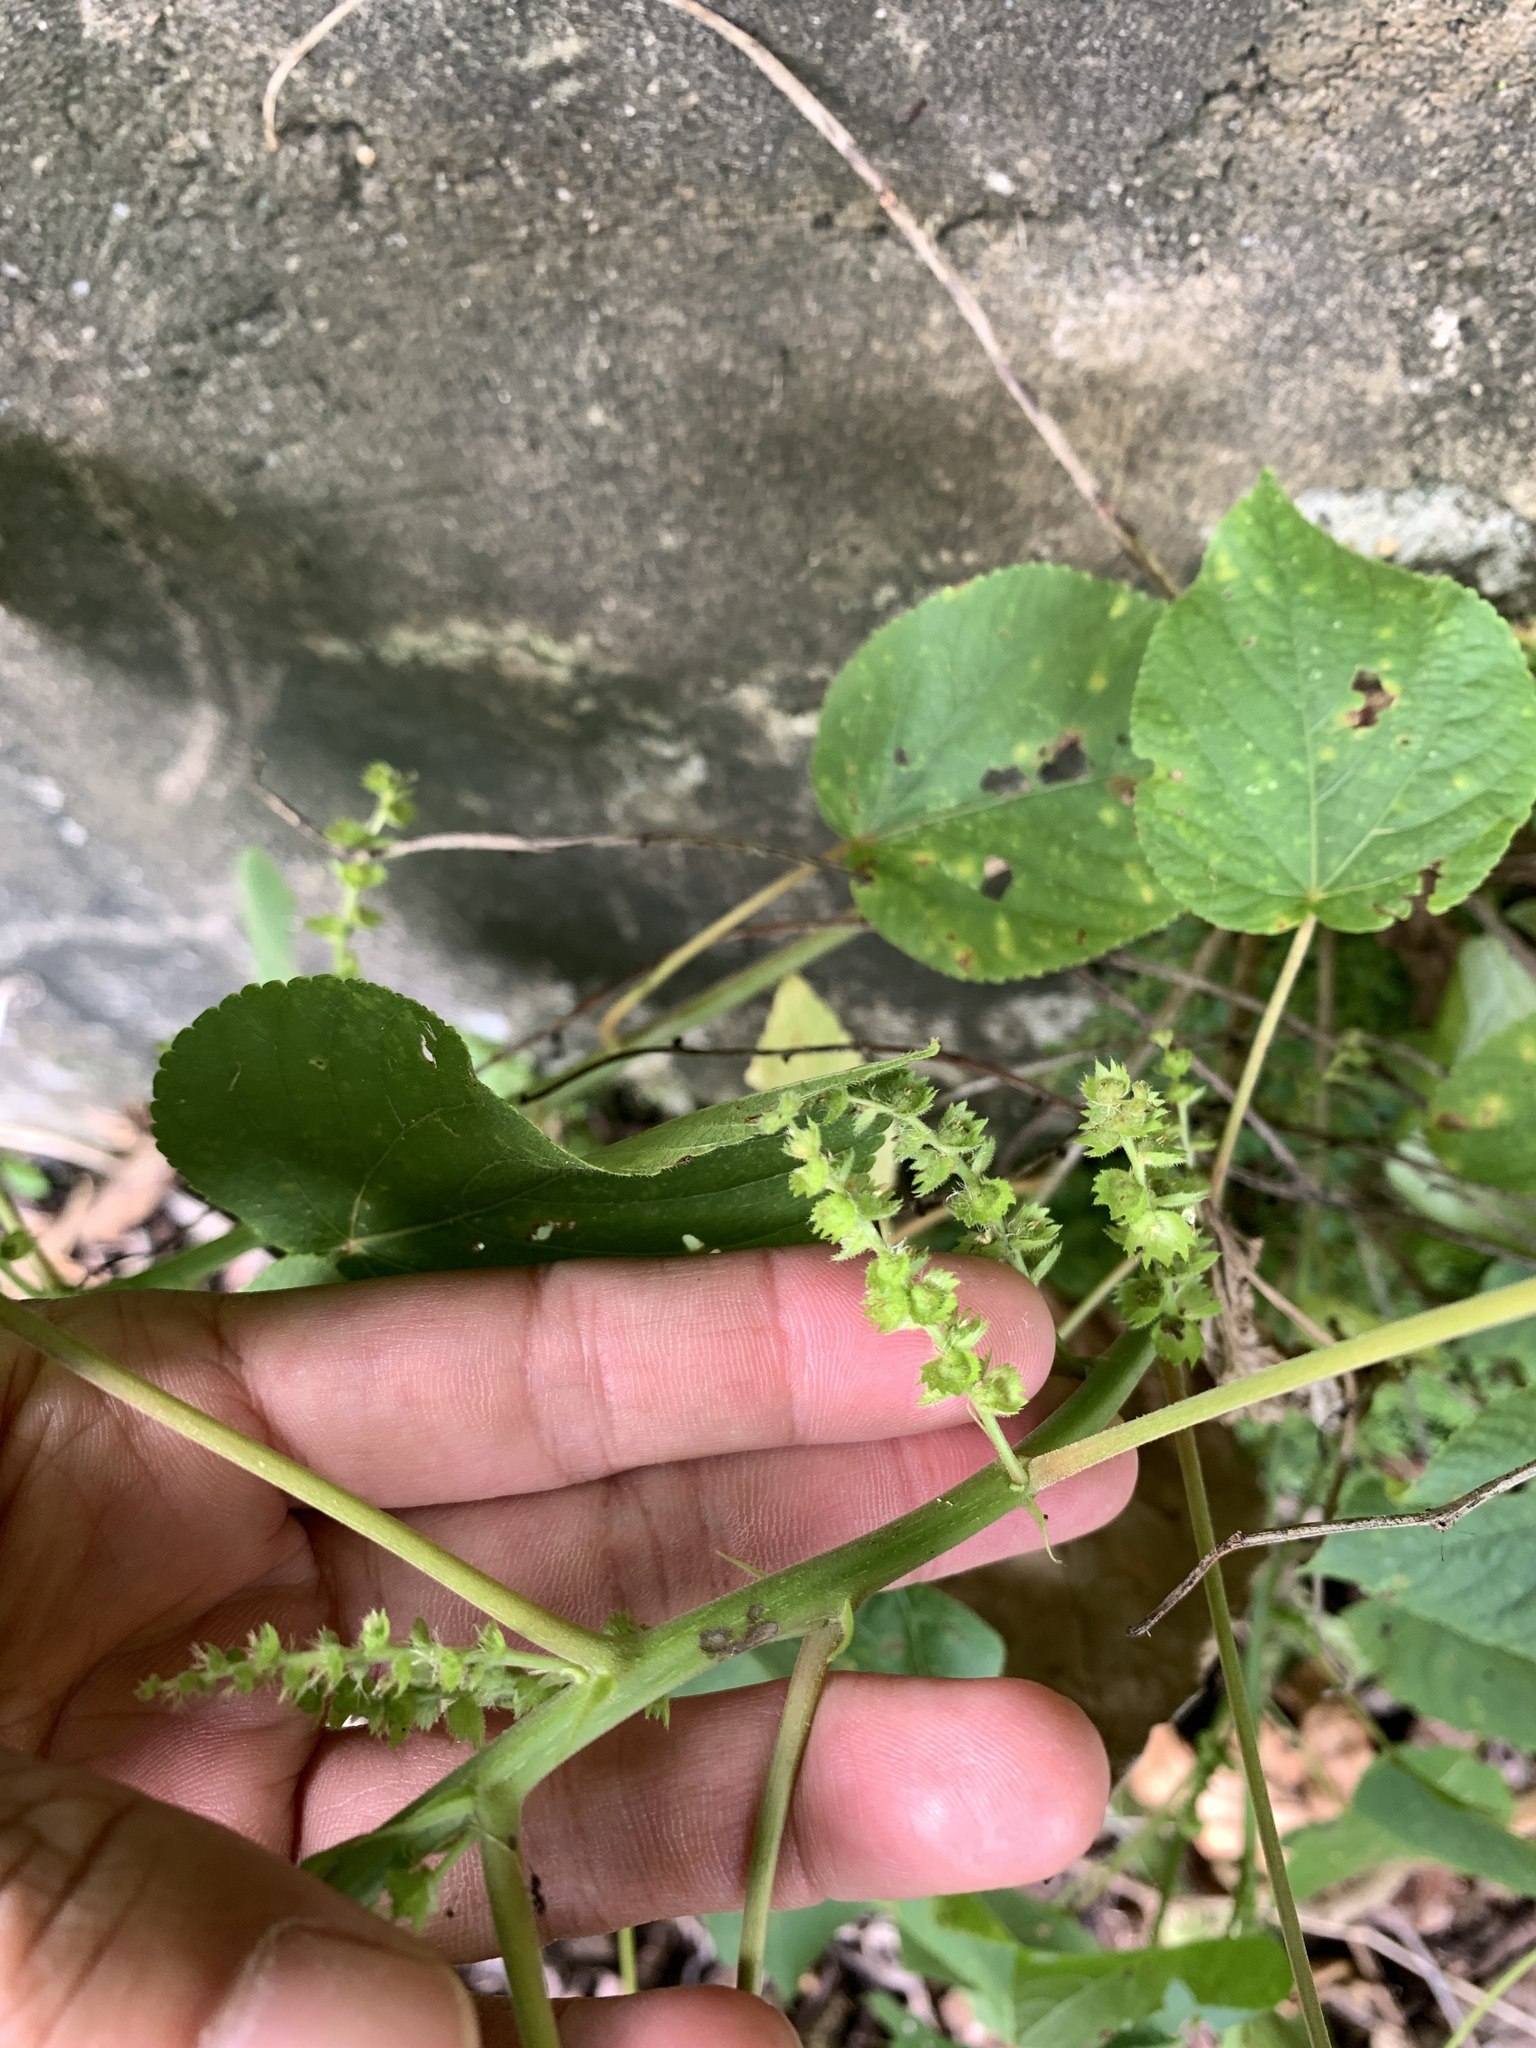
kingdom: Plantae
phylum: Tracheophyta
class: Magnoliopsida
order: Malpighiales
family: Euphorbiaceae
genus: Acalypha
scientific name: Acalypha grandibracteata
